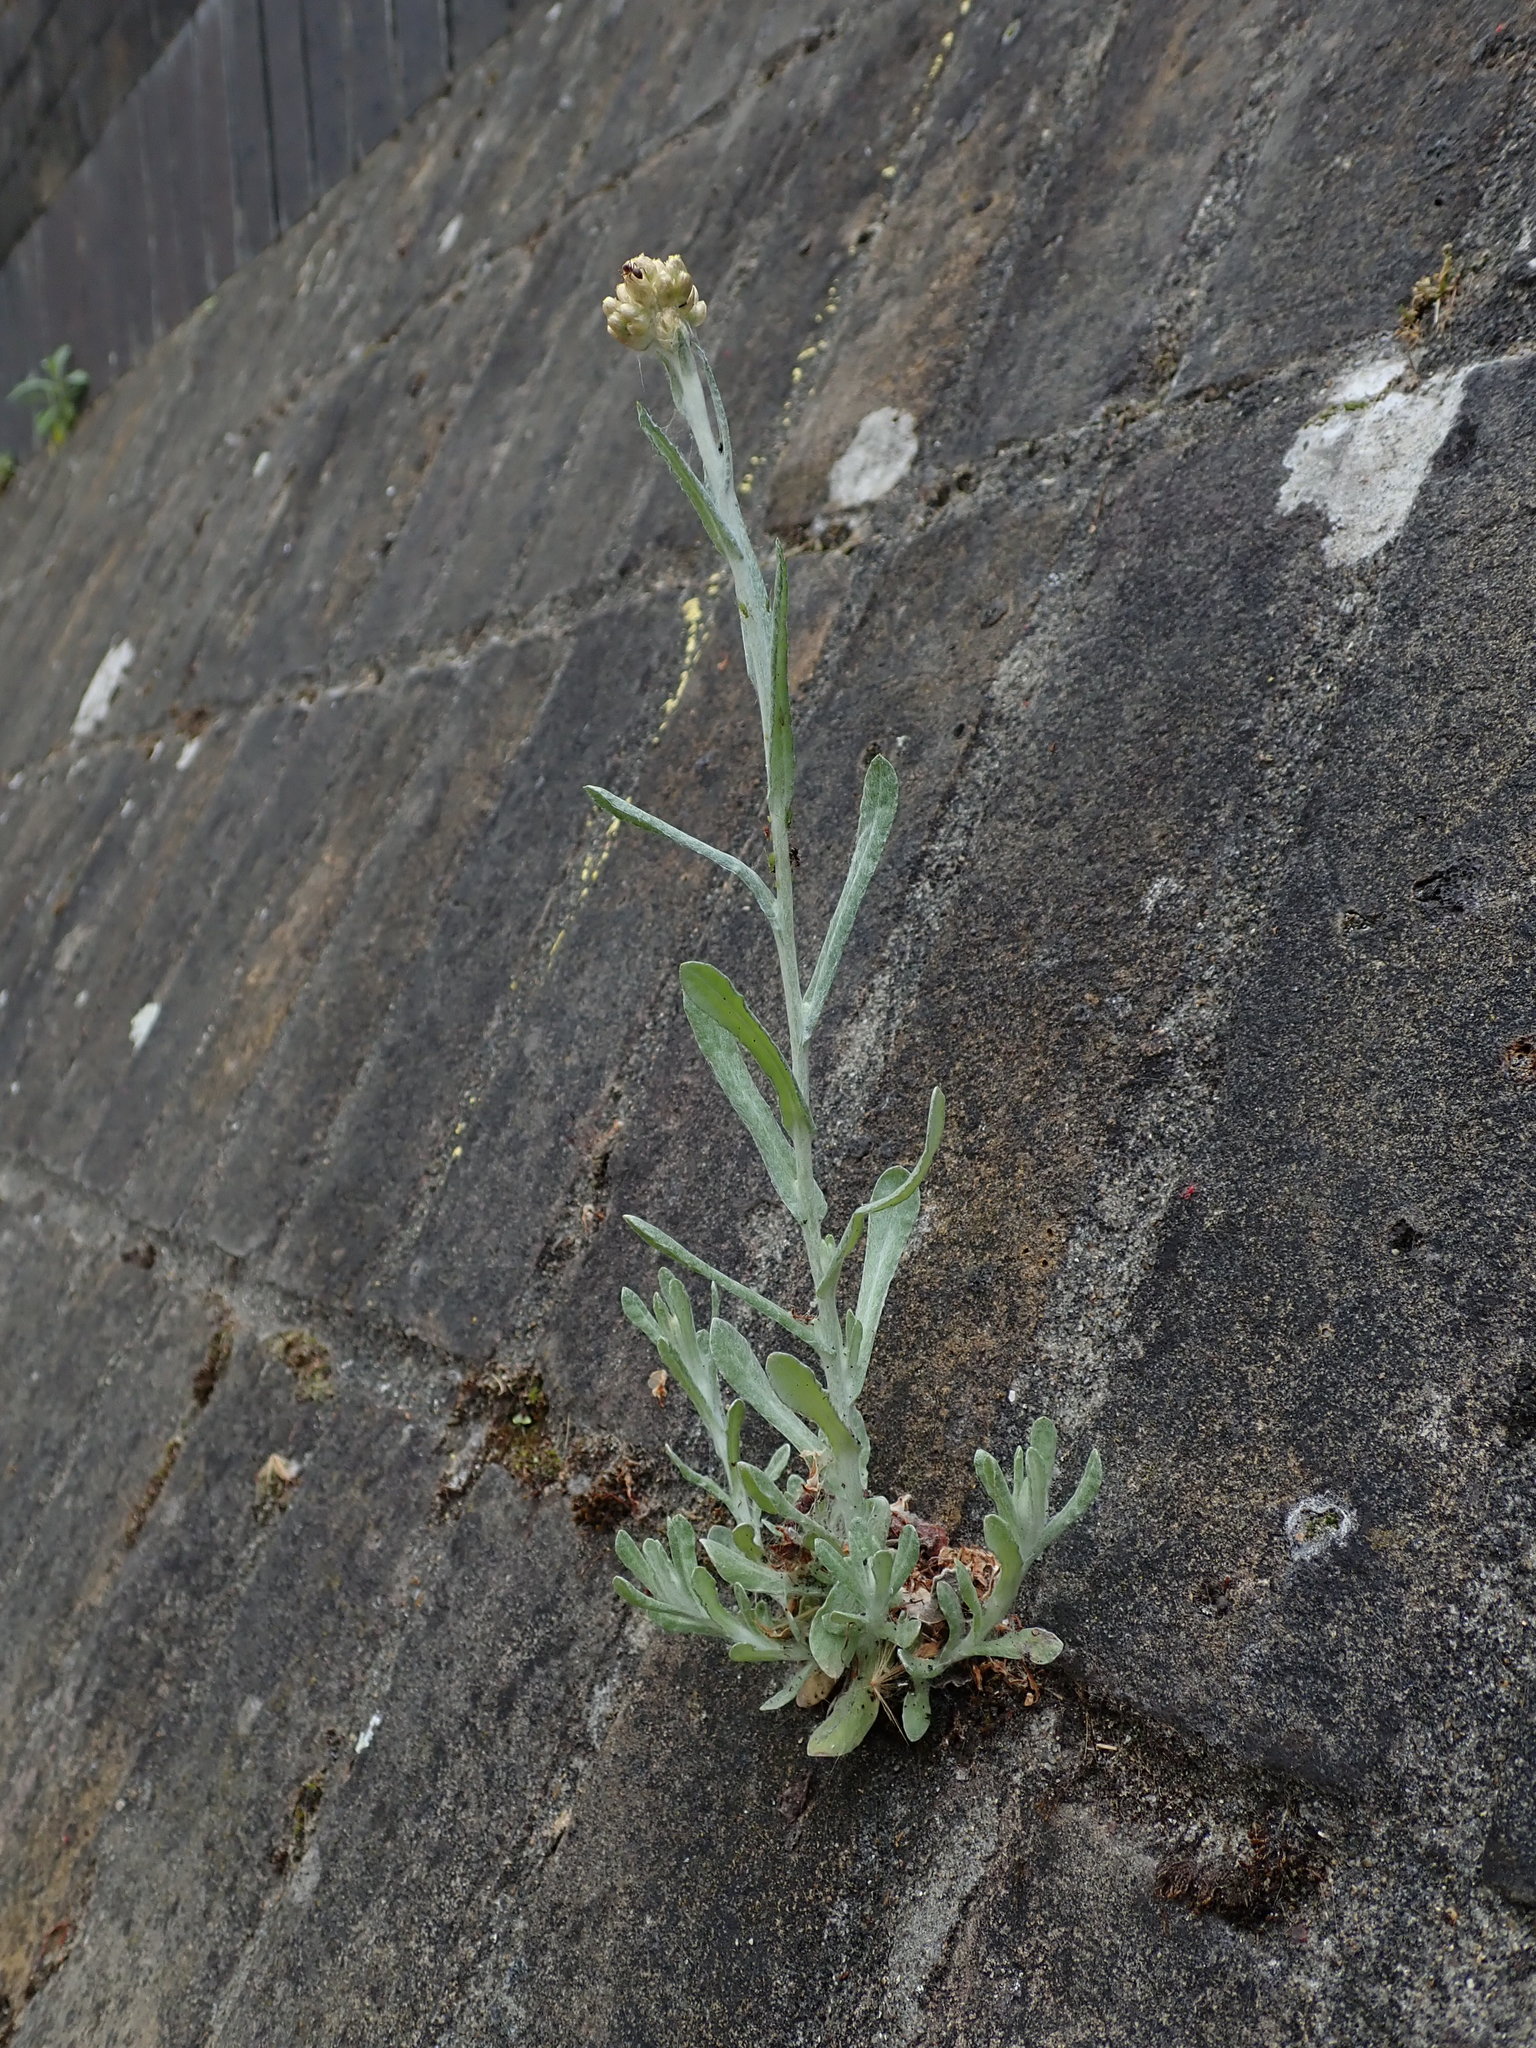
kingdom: Plantae
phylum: Tracheophyta
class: Magnoliopsida
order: Asterales
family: Asteraceae
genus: Helichrysum
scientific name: Helichrysum luteoalbum
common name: Daisy
